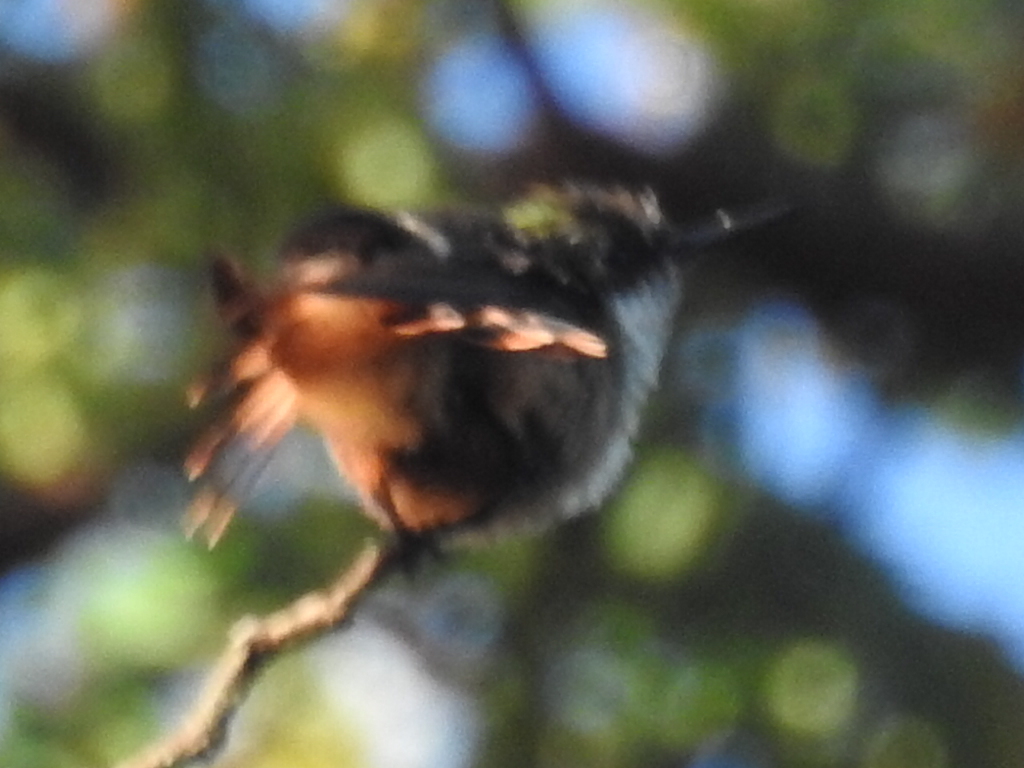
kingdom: Animalia
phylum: Chordata
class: Aves
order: Apodiformes
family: Trochilidae
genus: Lophornis
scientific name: Lophornis adorabilis
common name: White-crested coquette
